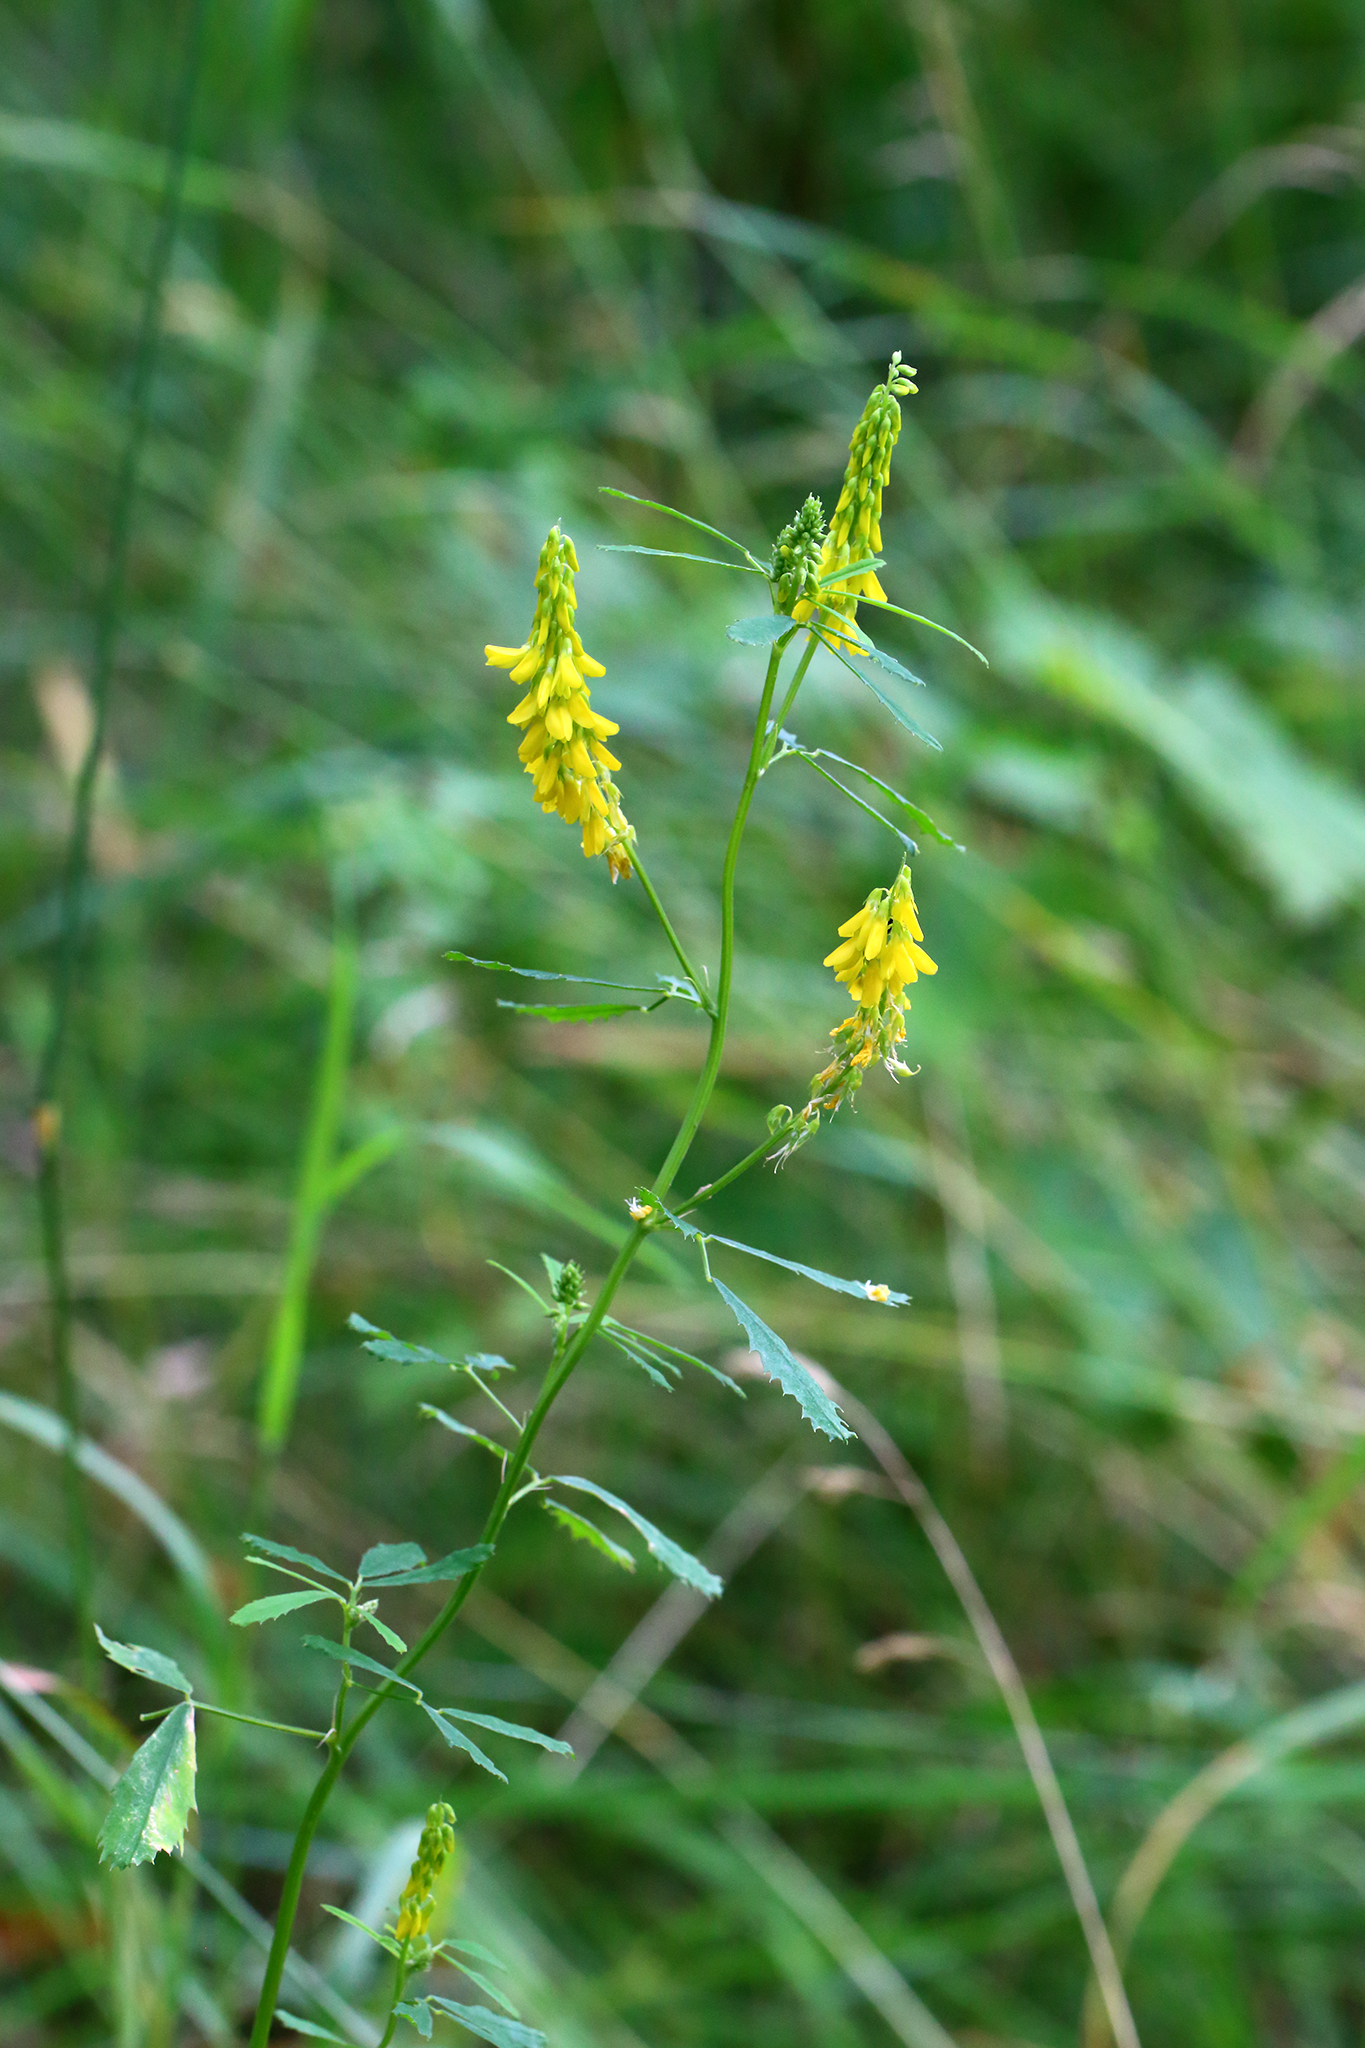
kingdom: Plantae
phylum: Tracheophyta
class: Magnoliopsida
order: Fabales
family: Fabaceae
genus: Melilotus
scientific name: Melilotus officinalis
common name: Sweetclover
